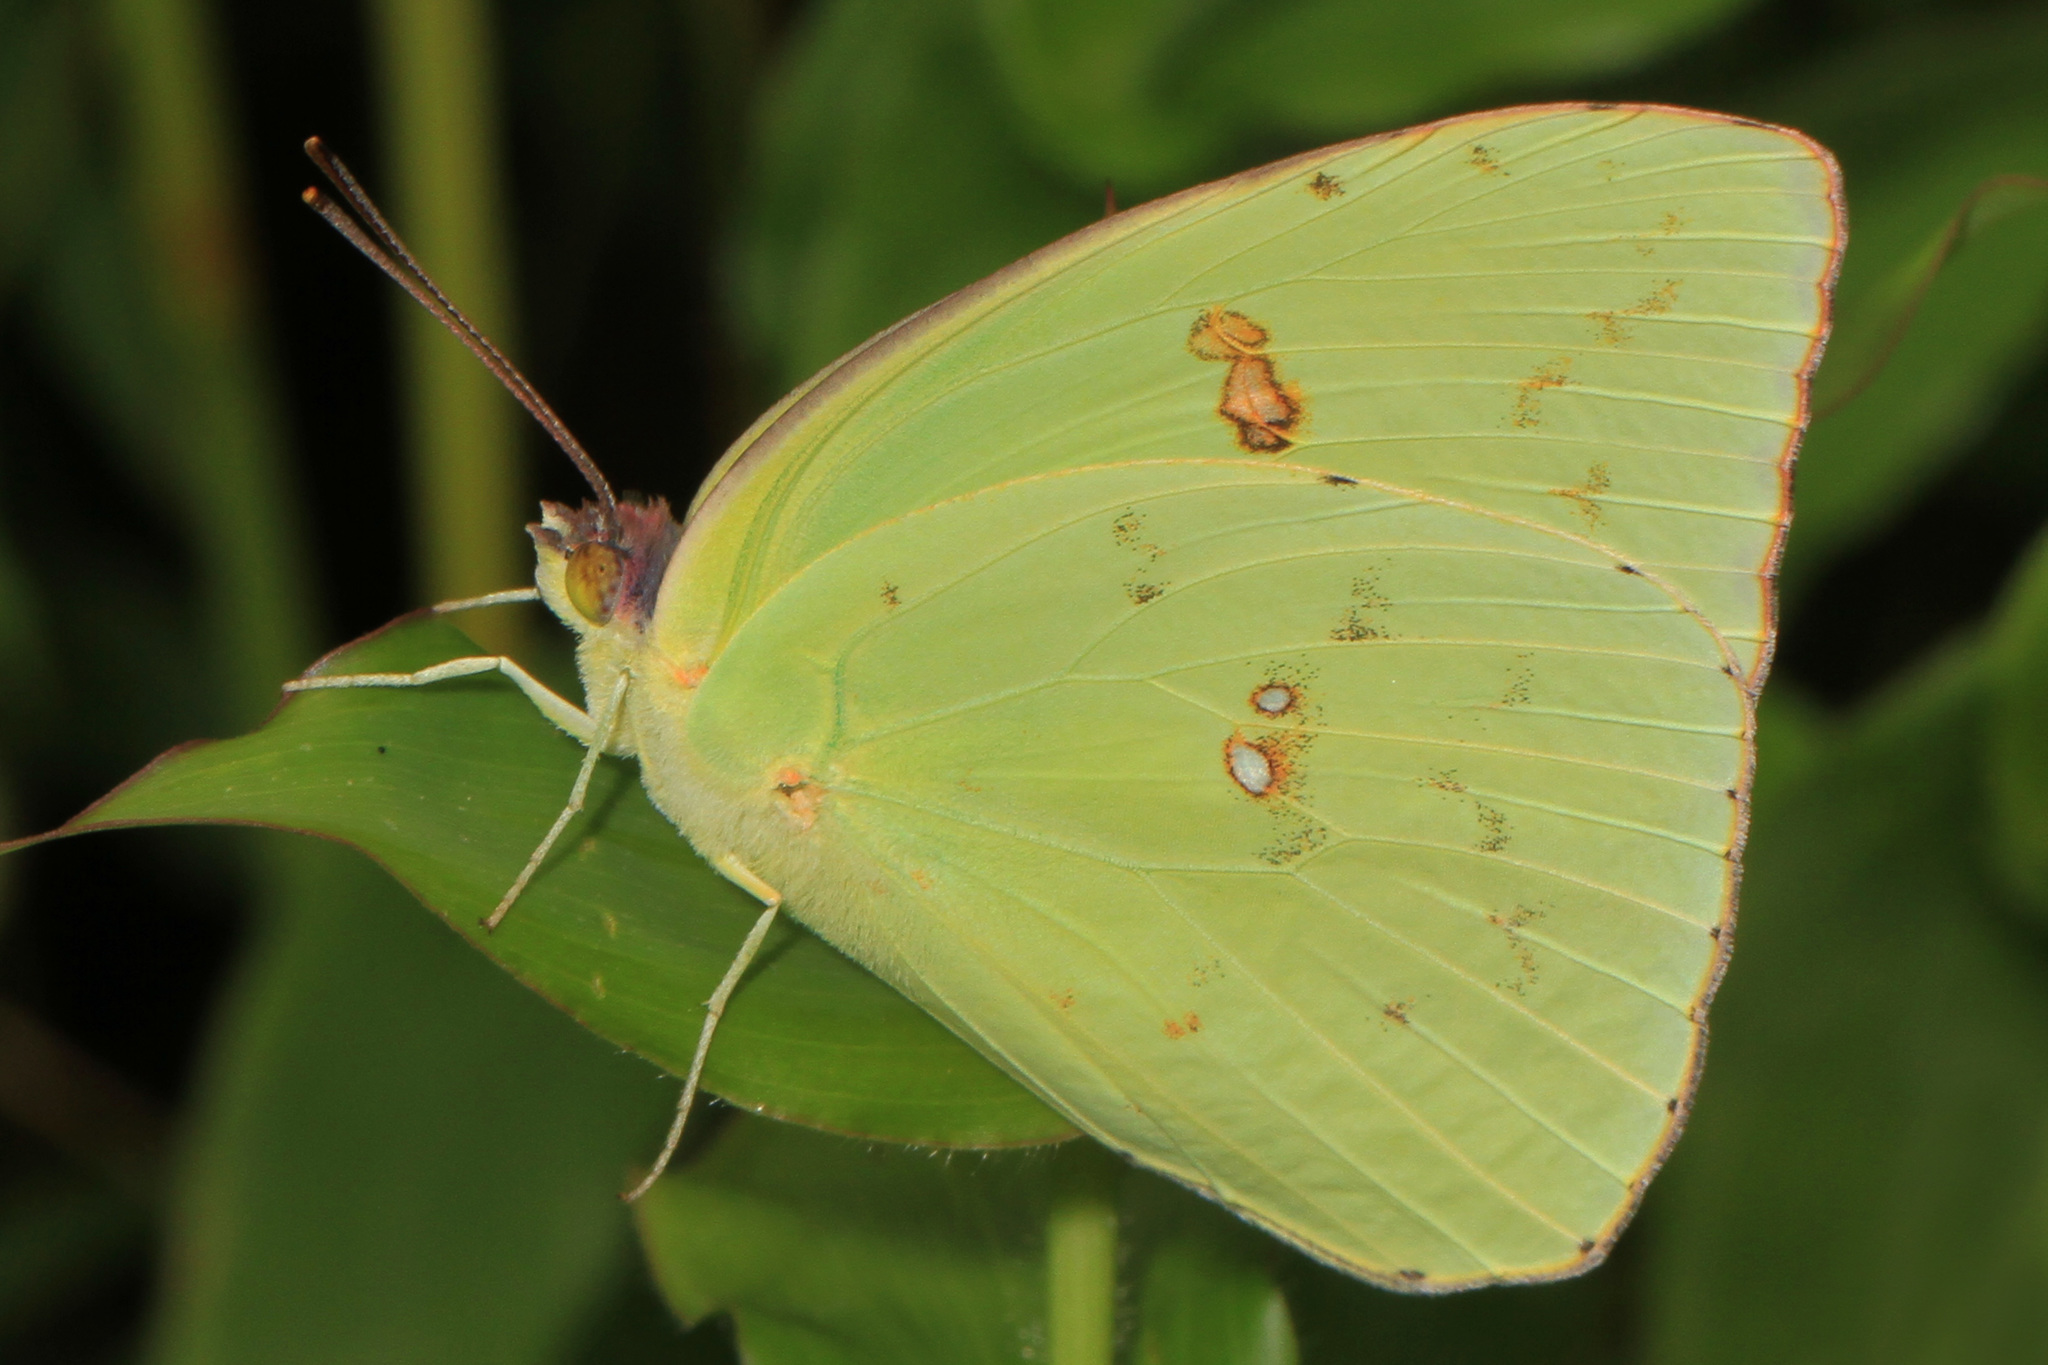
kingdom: Animalia
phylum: Arthropoda
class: Insecta
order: Lepidoptera
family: Pieridae
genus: Phoebis
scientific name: Phoebis sennae
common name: Cloudless sulphur
